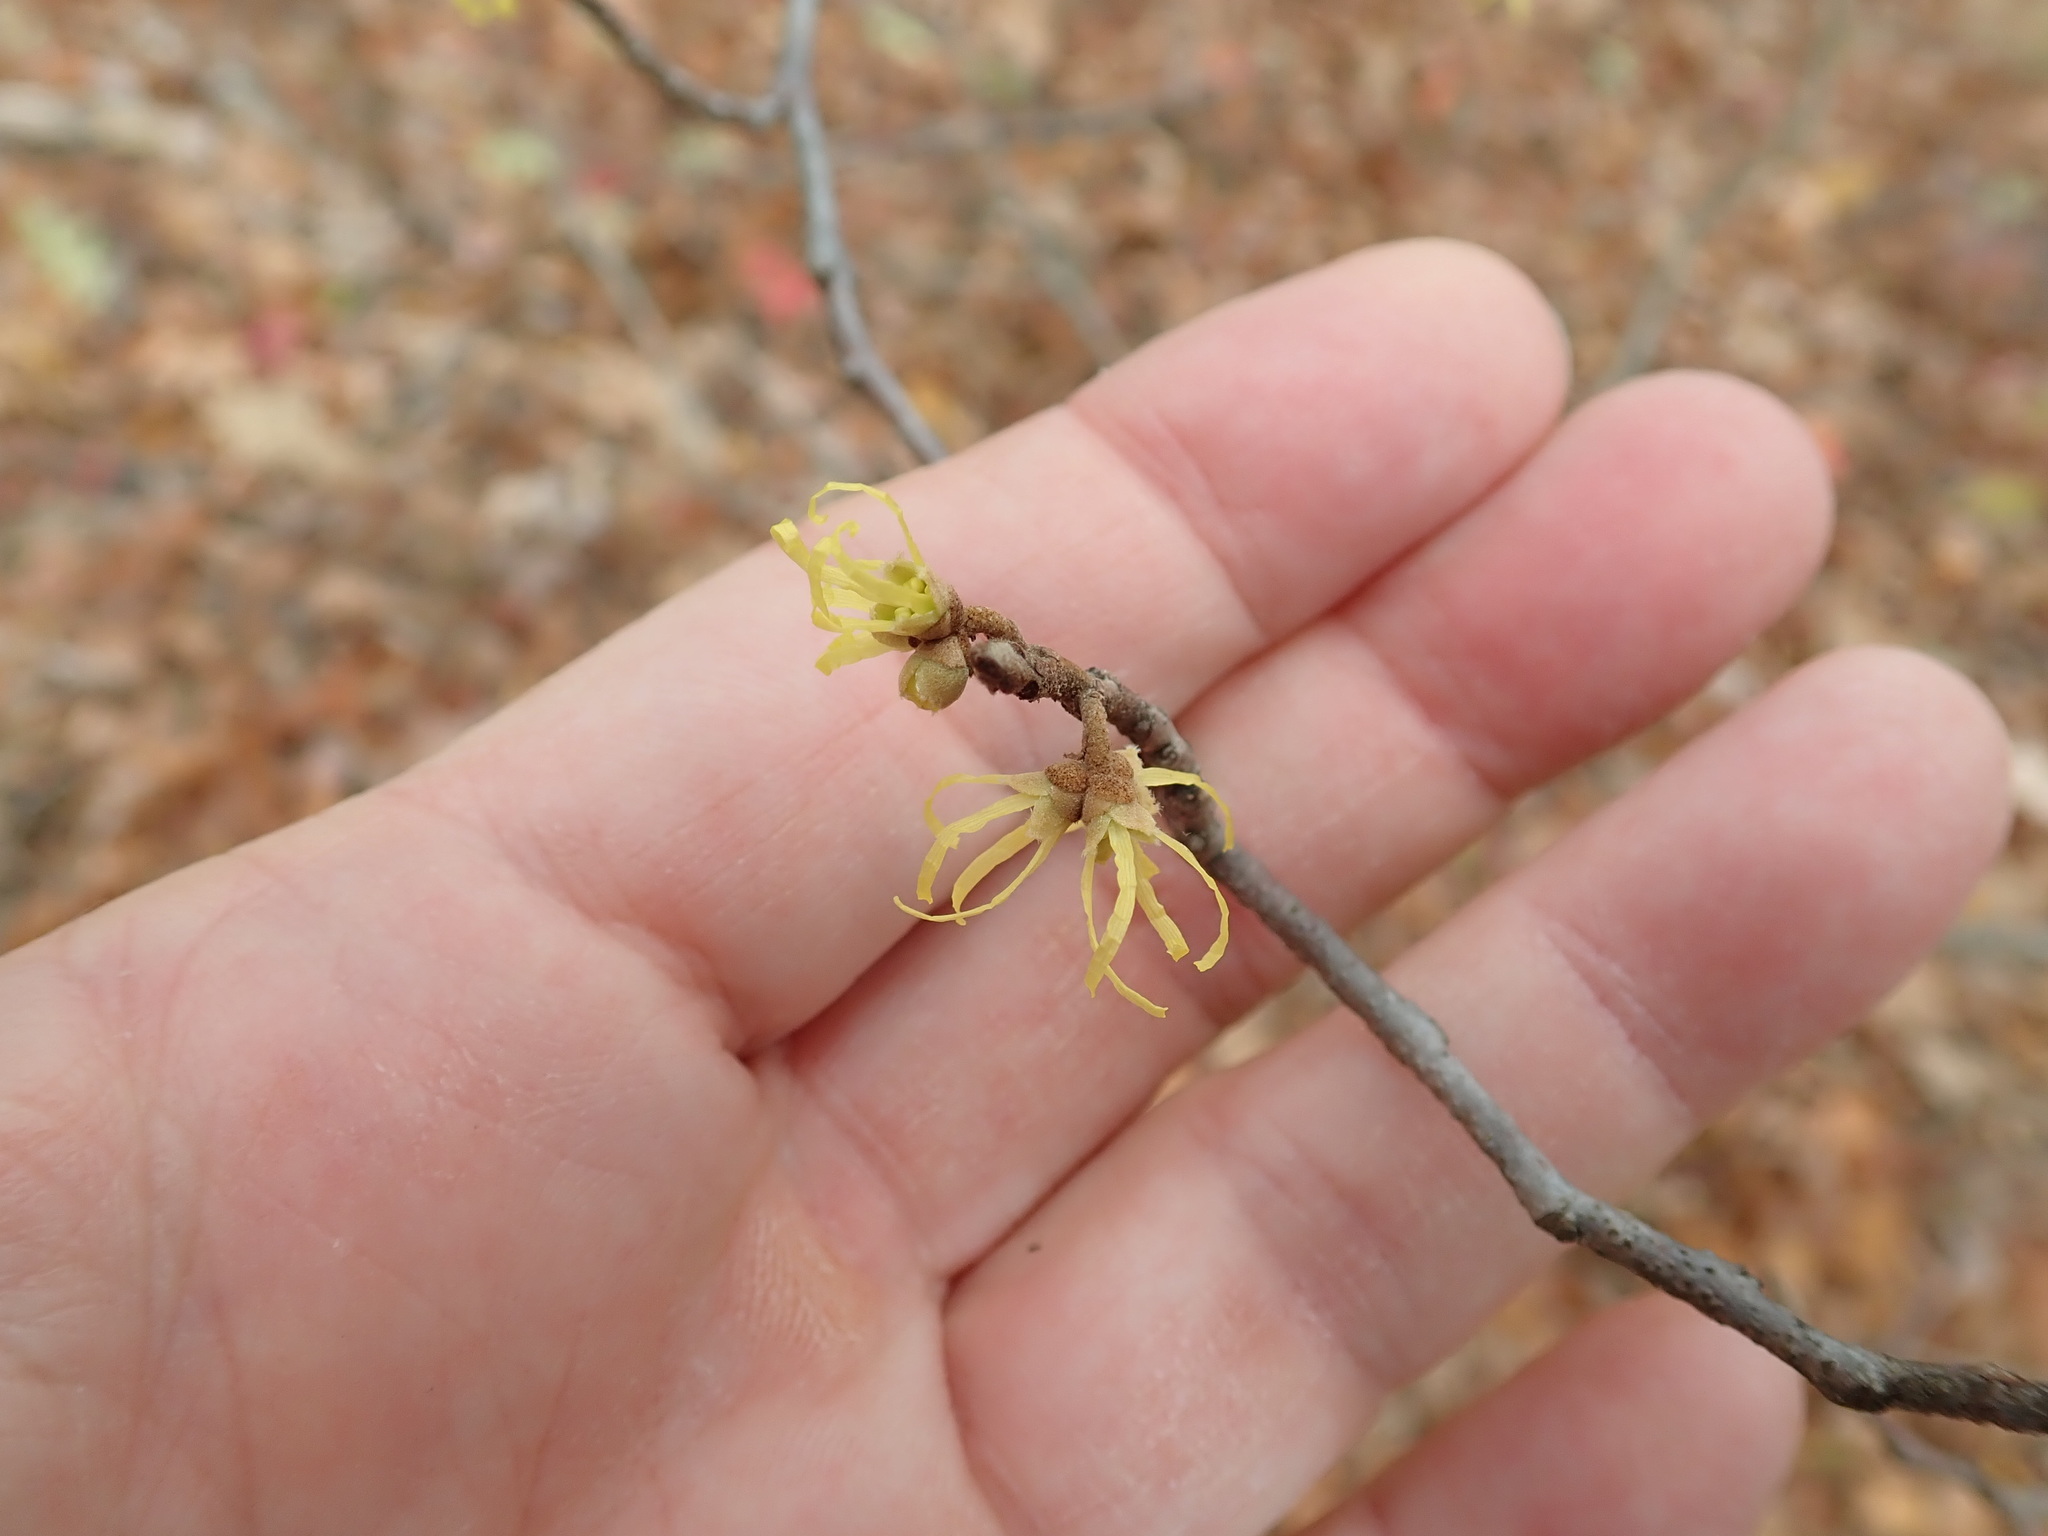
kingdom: Plantae
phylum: Tracheophyta
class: Magnoliopsida
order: Saxifragales
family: Hamamelidaceae
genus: Hamamelis
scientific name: Hamamelis virginiana
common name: Witch-hazel
